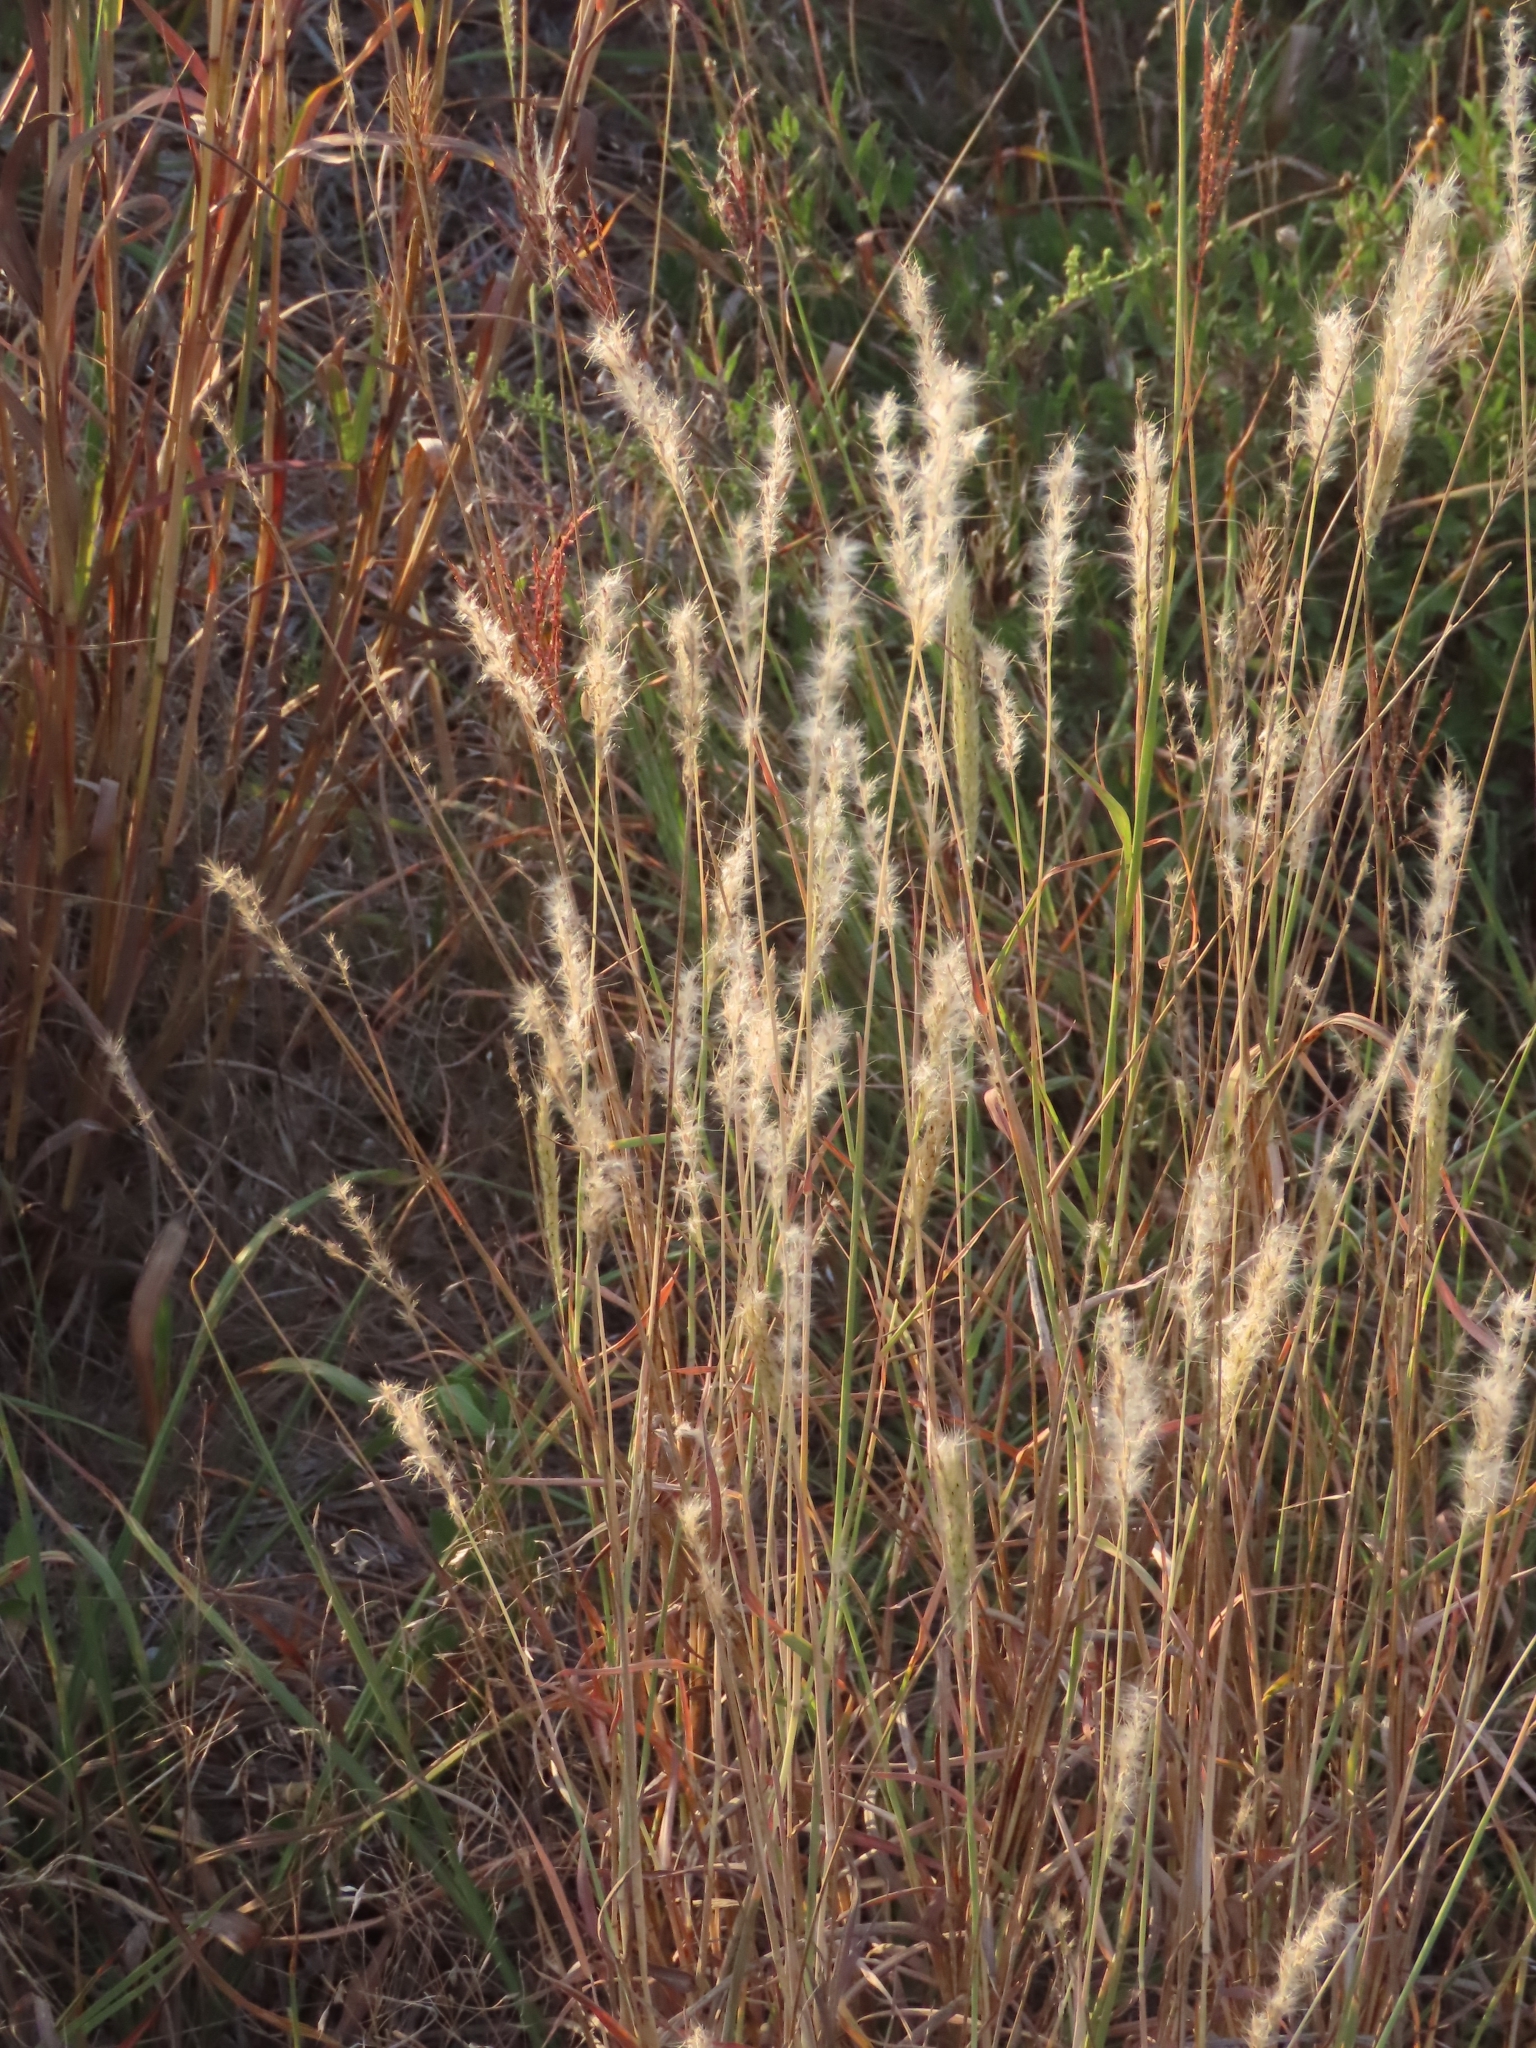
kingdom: Plantae
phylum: Tracheophyta
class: Liliopsida
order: Poales
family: Poaceae
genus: Bothriochloa
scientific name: Bothriochloa torreyana
